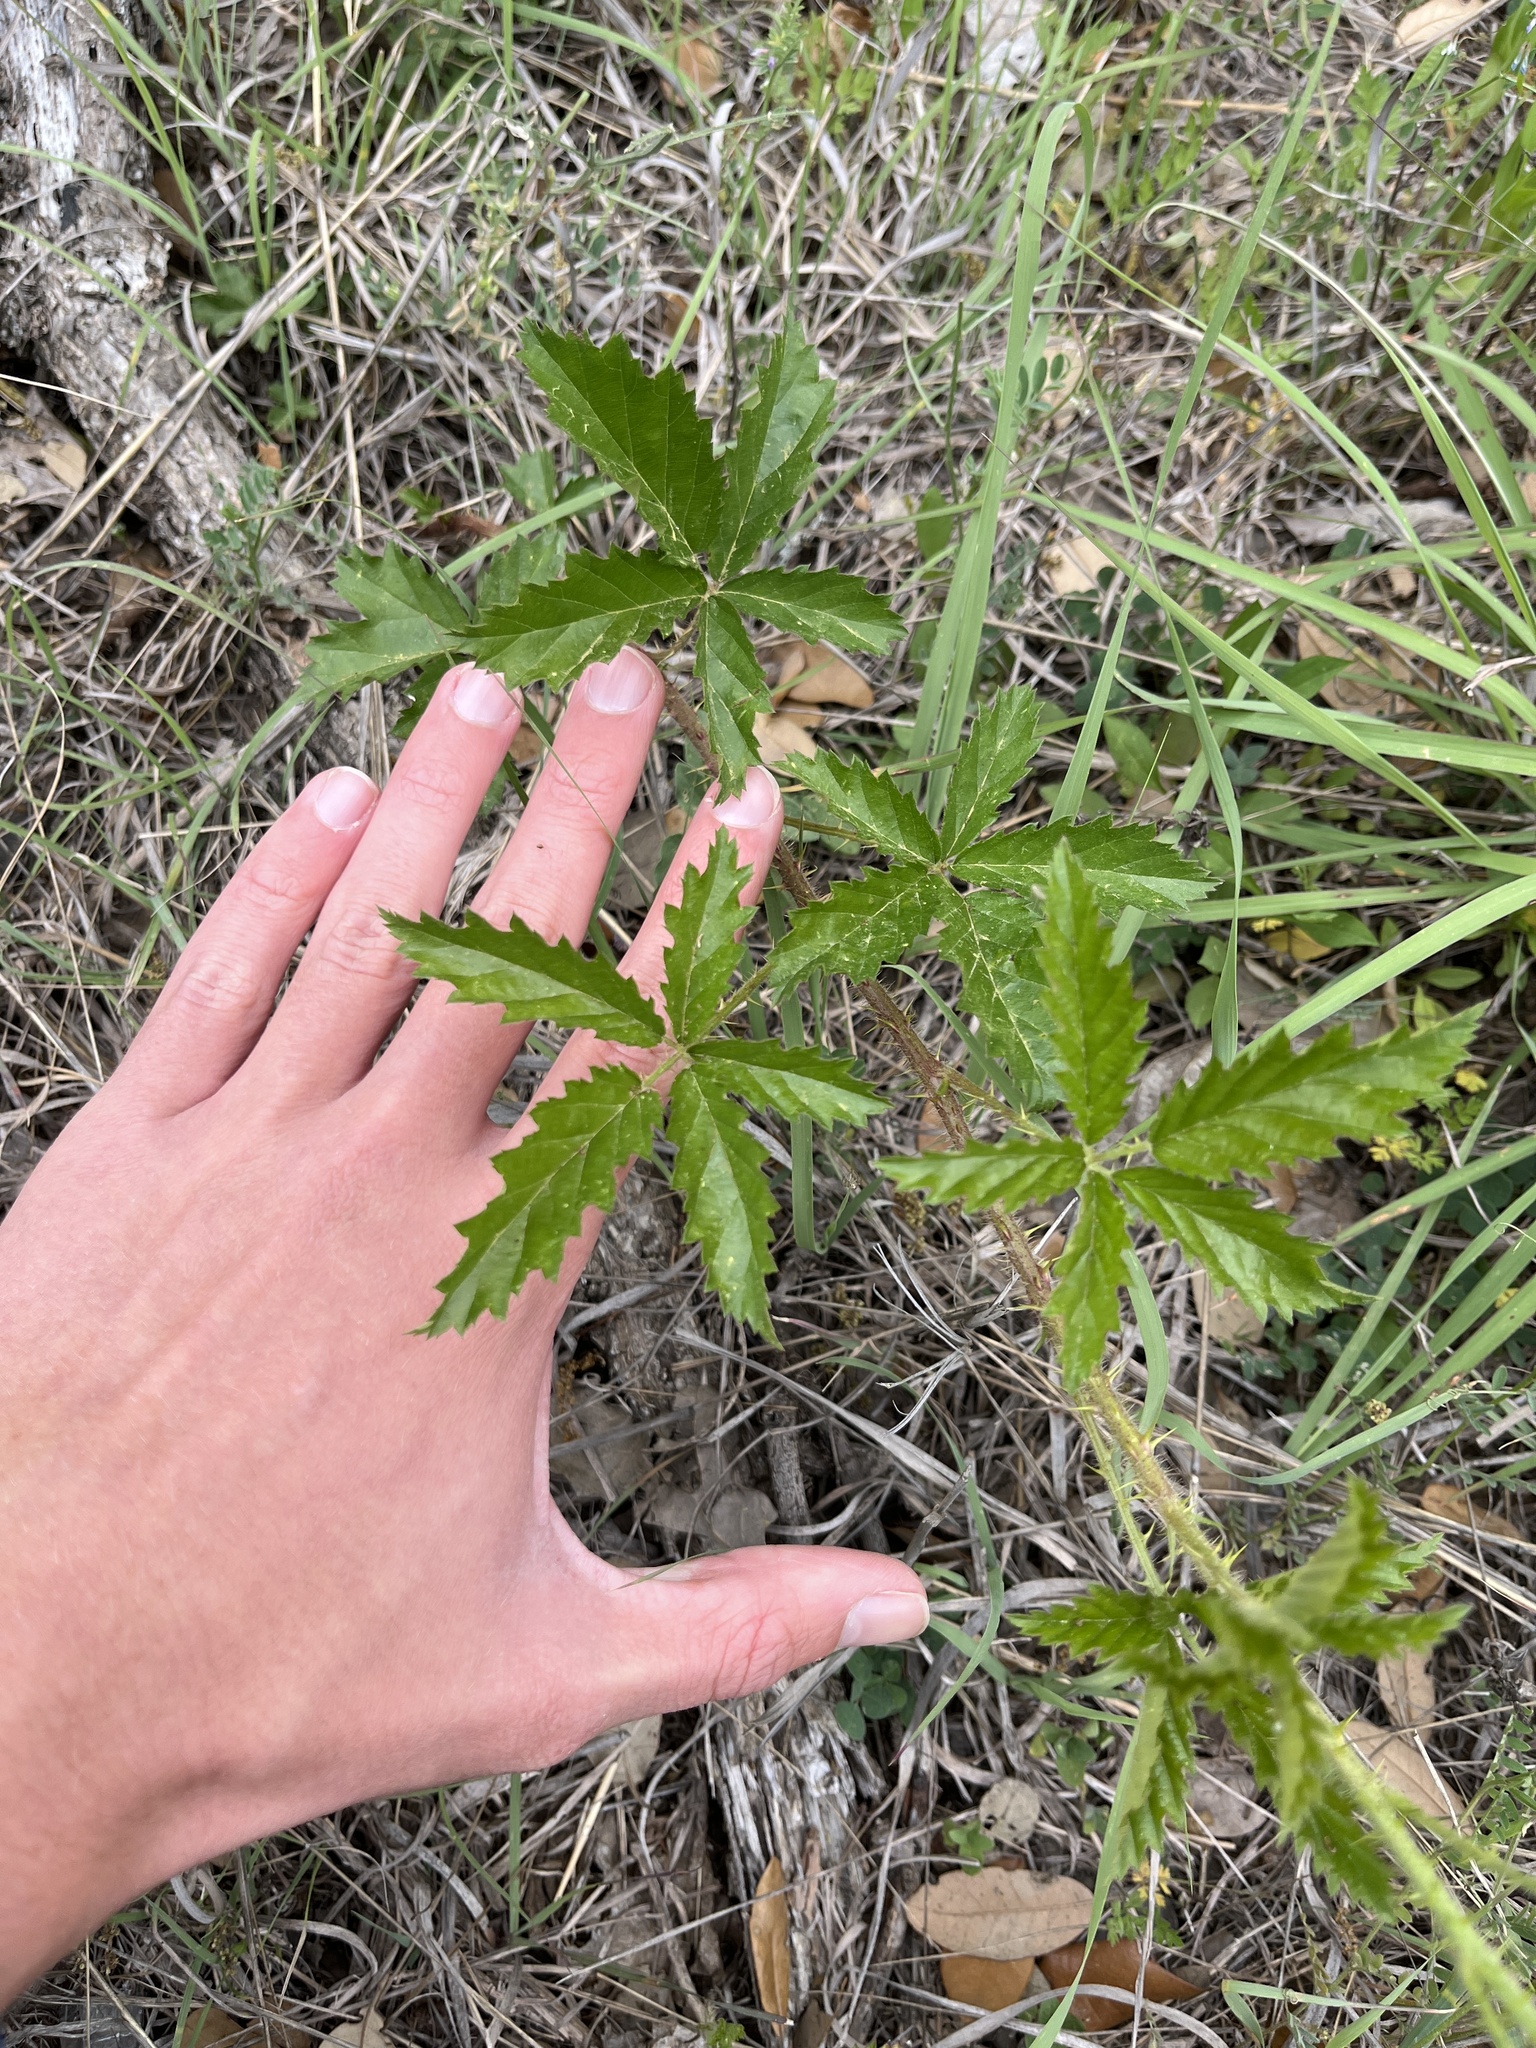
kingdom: Plantae
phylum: Tracheophyta
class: Magnoliopsida
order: Rosales
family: Rosaceae
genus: Rubus
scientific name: Rubus trivialis
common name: Southern dewberry
